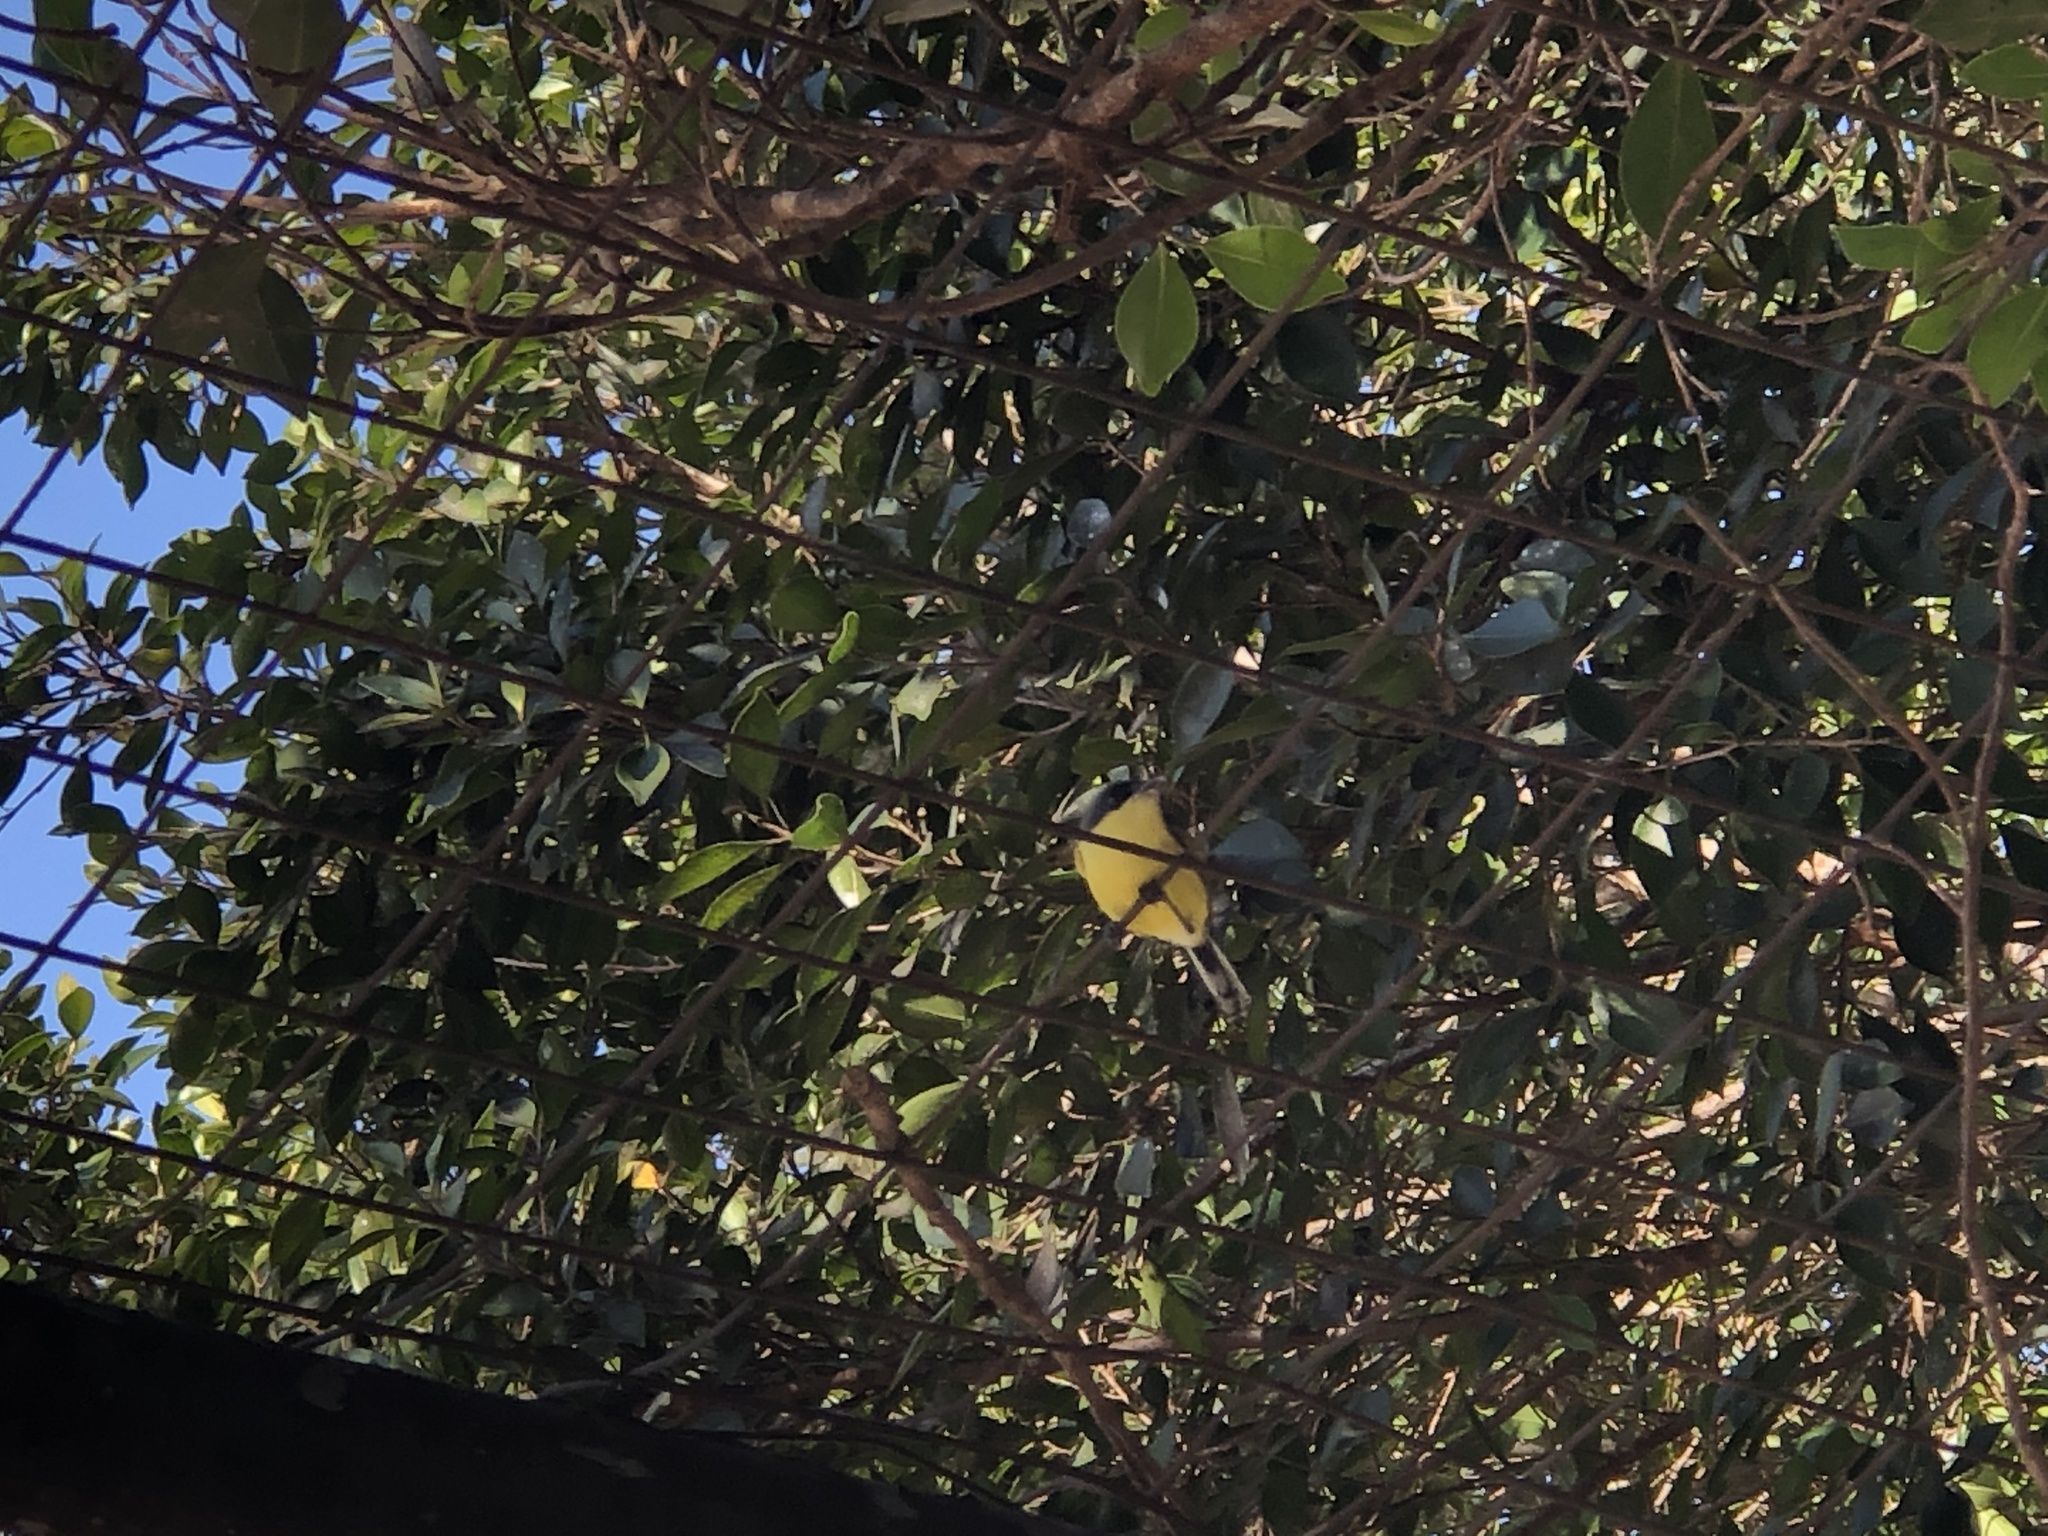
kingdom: Animalia
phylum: Chordata
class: Aves
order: Passeriformes
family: Tyrannidae
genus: Todirostrum
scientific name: Todirostrum cinereum
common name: Common tody-flycatcher
